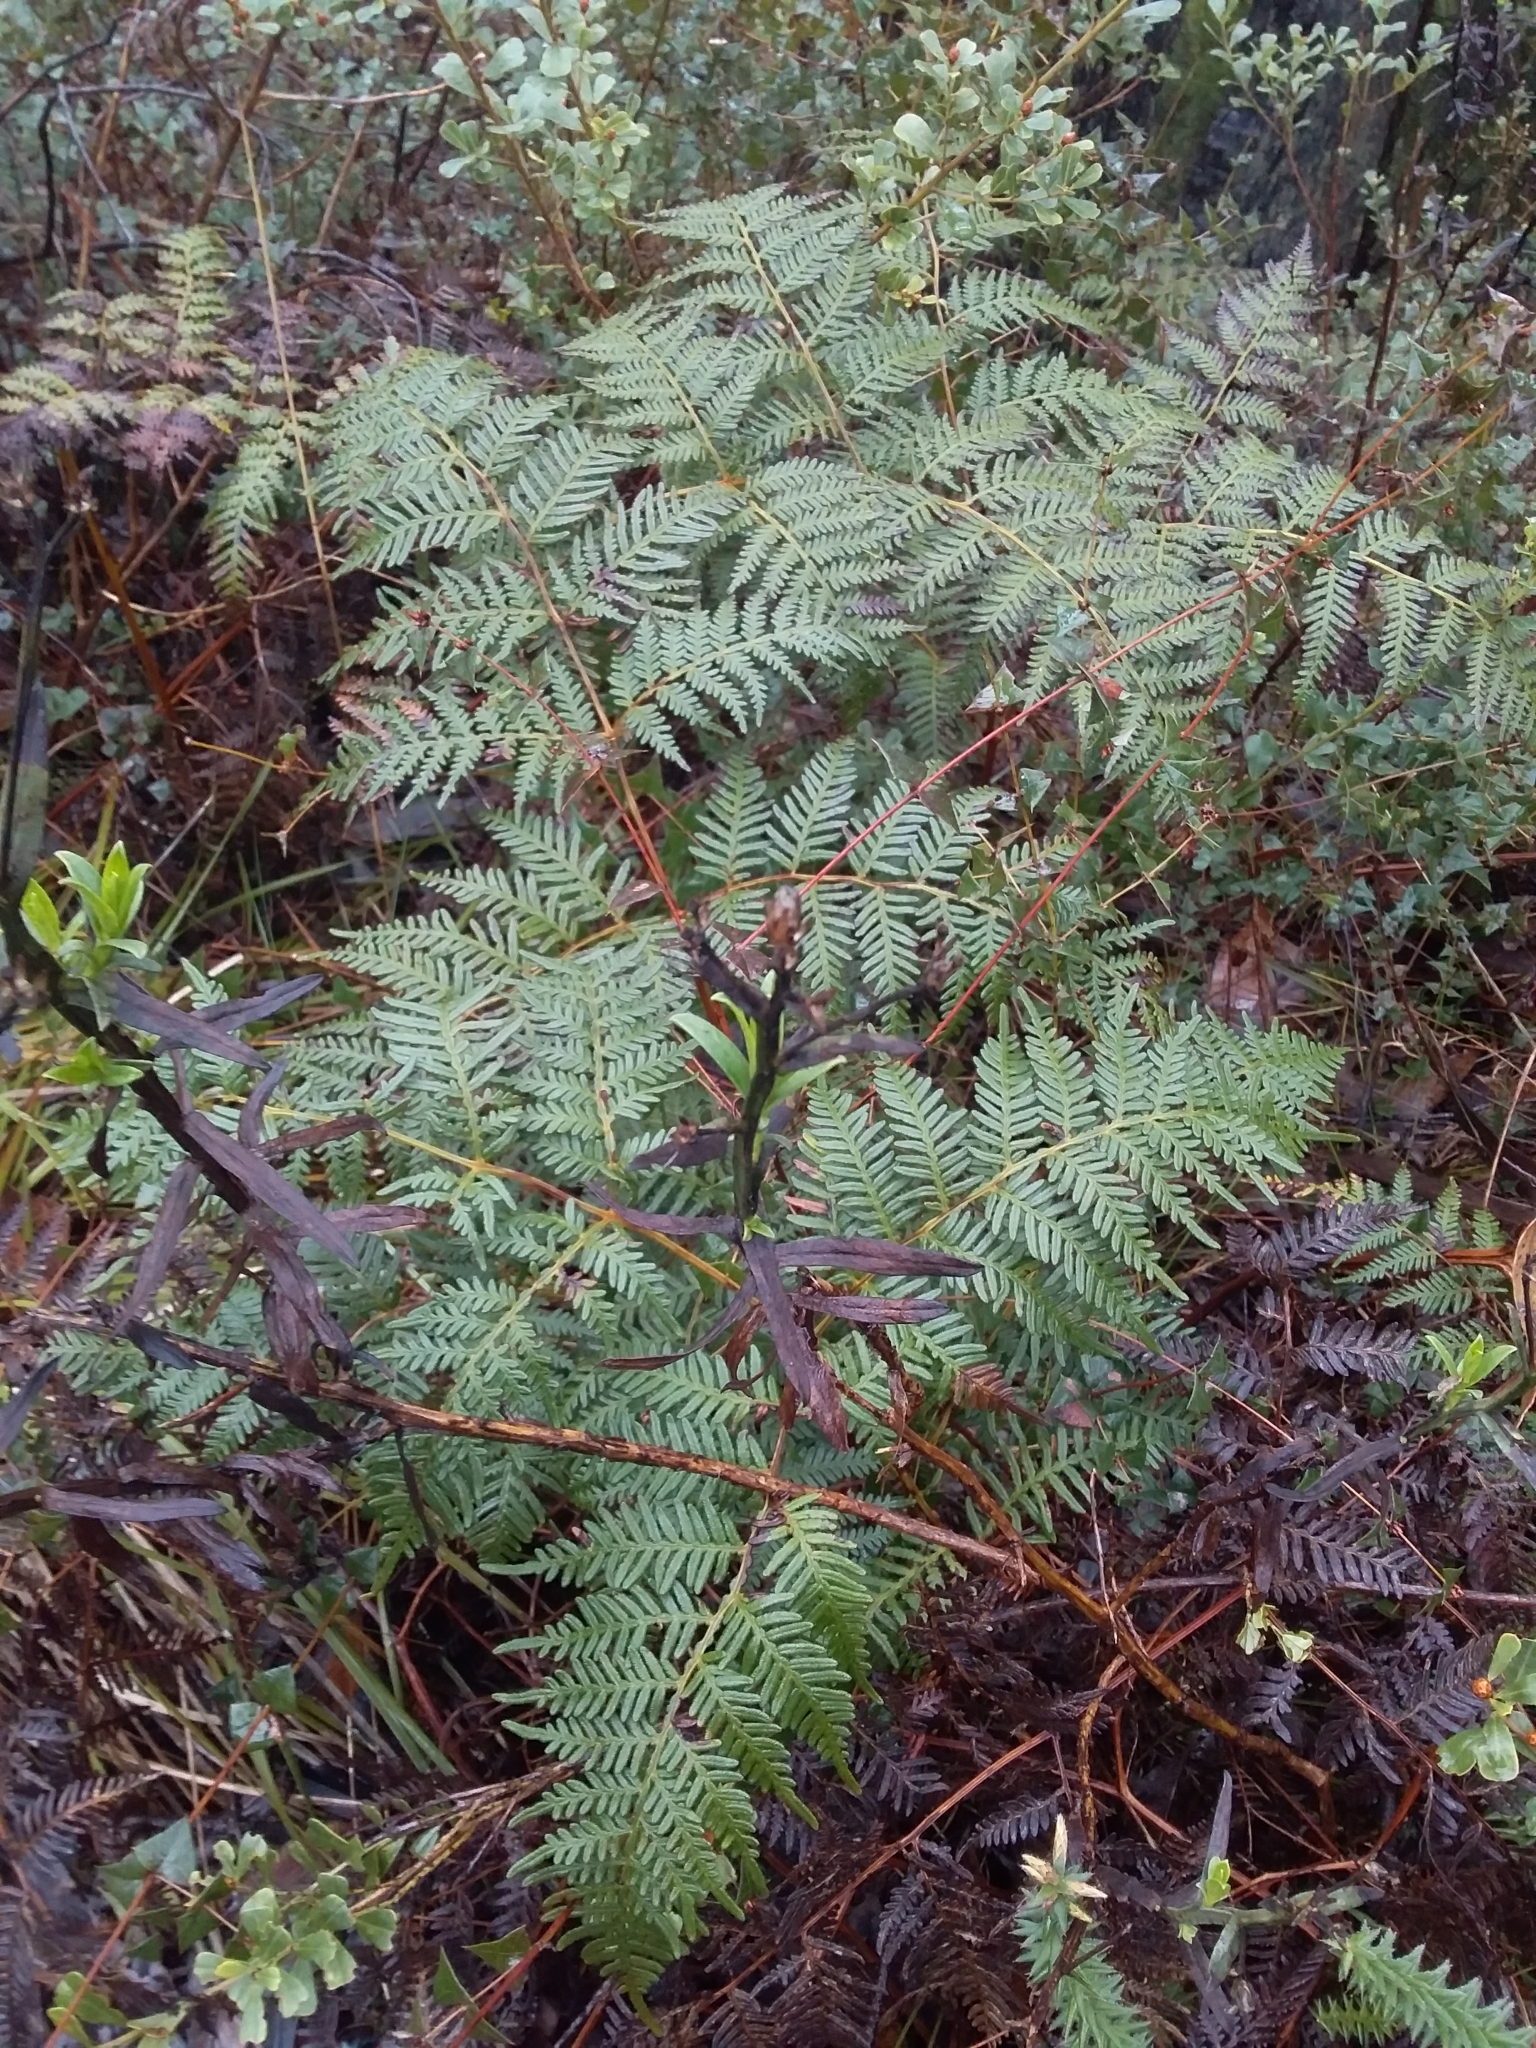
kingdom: Plantae
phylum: Tracheophyta
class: Polypodiopsida
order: Polypodiales
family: Dennstaedtiaceae
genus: Pteridium
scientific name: Pteridium esculentum
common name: Bracken fern
